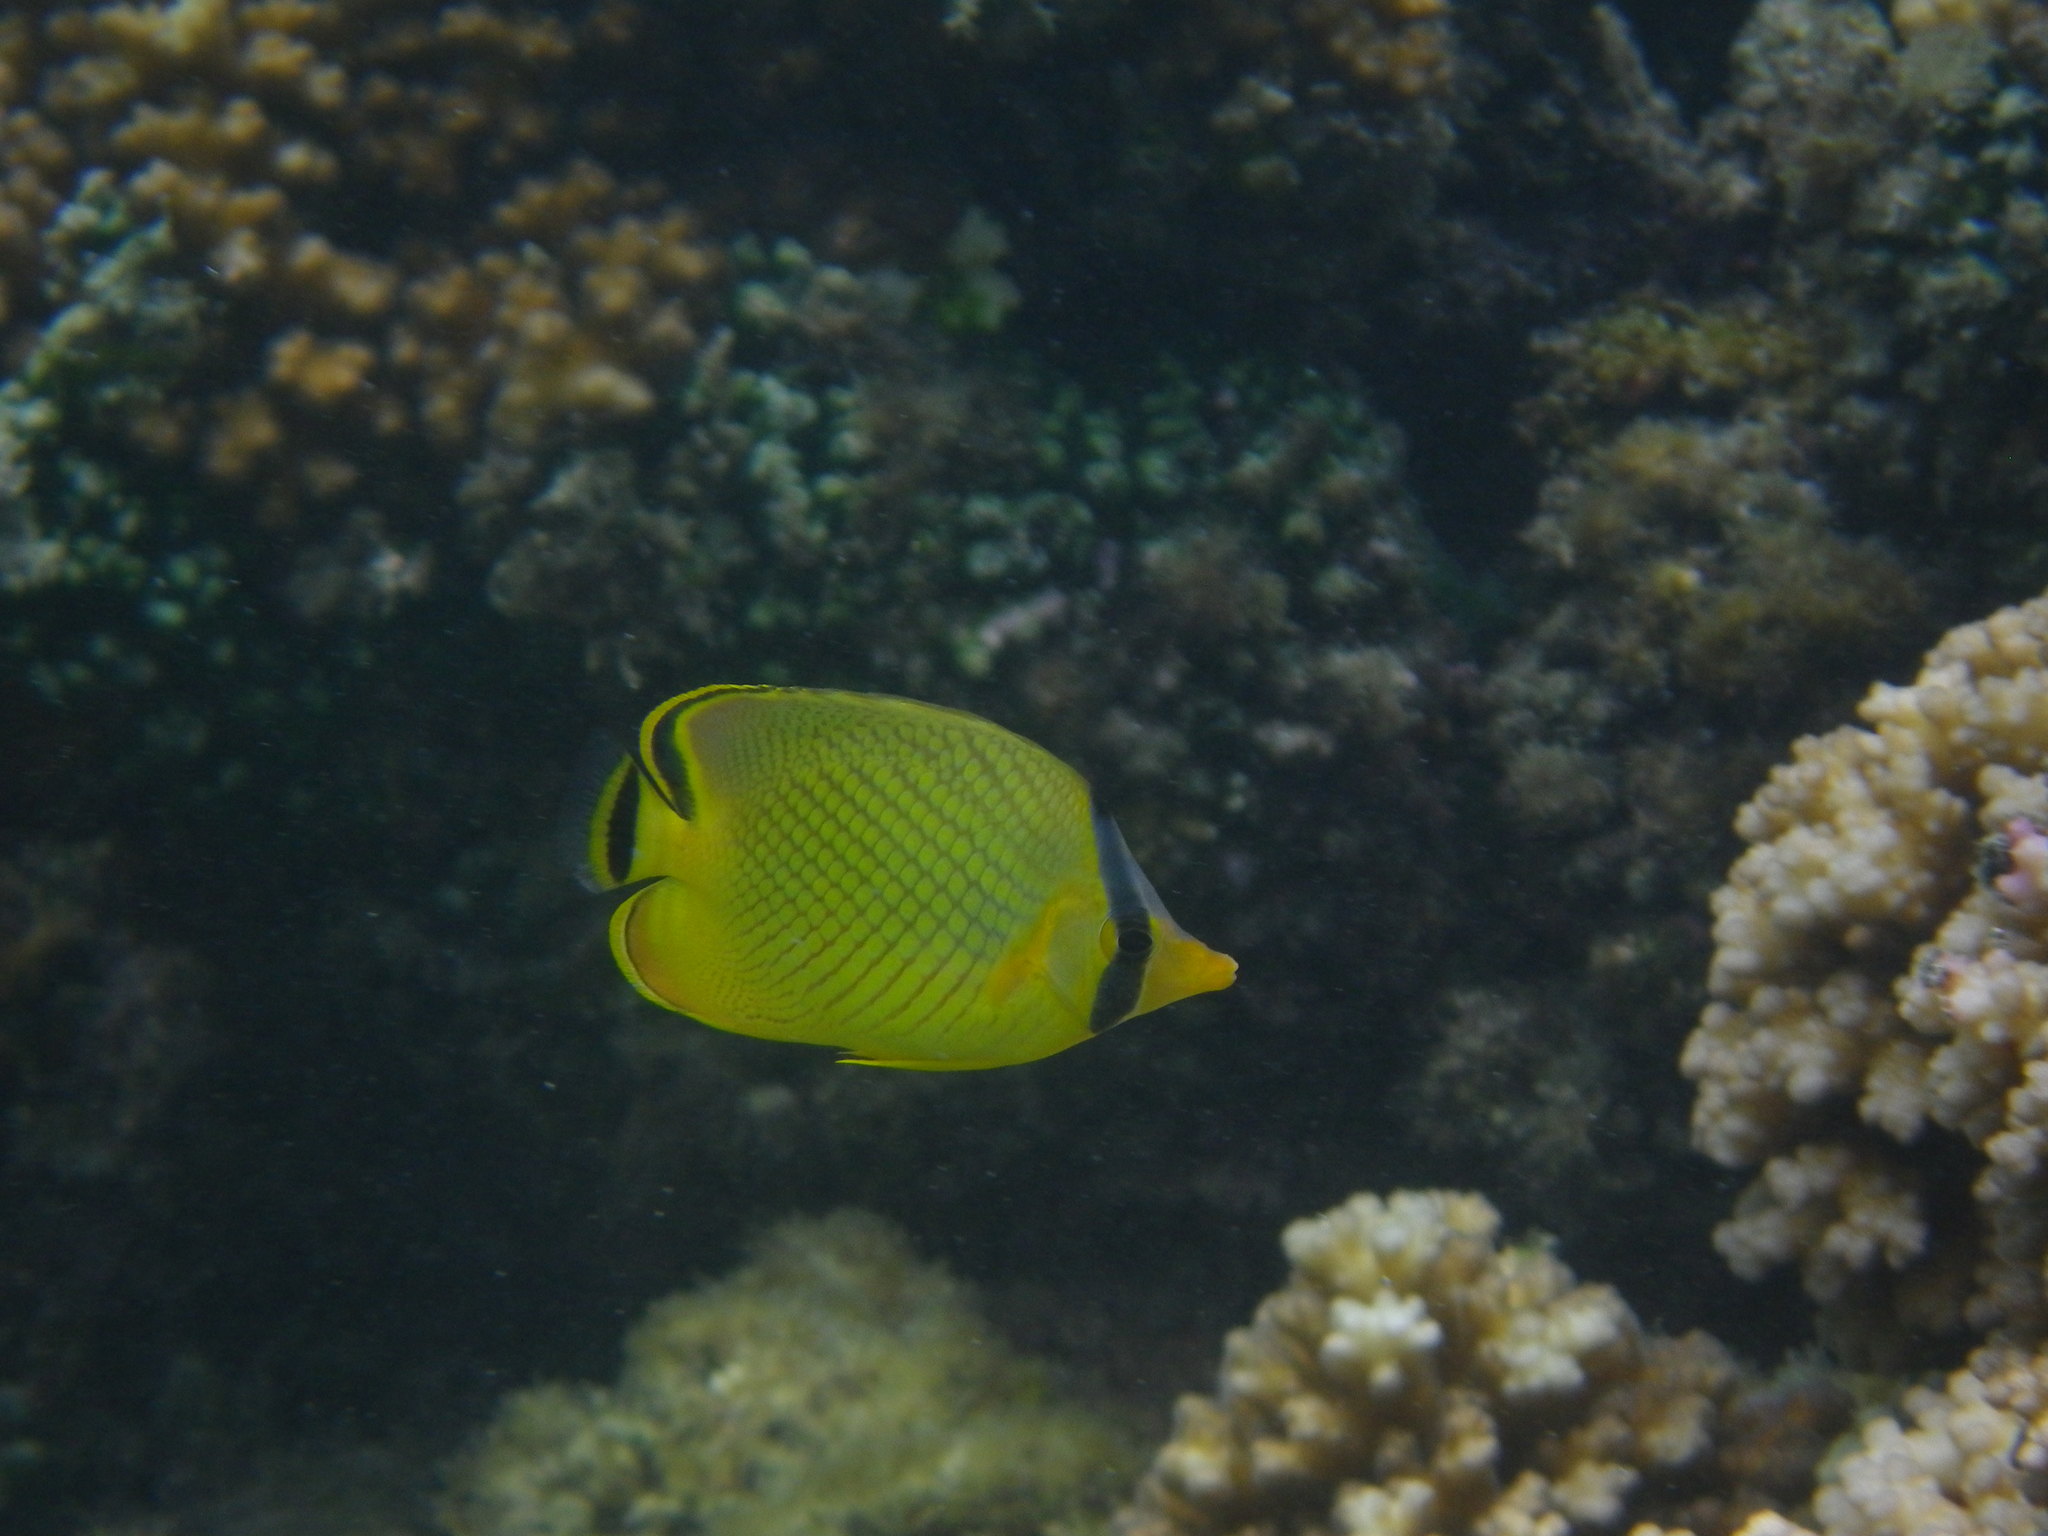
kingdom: Animalia
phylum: Chordata
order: Perciformes
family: Chaetodontidae
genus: Chaetodon
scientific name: Chaetodon rafflesii
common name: Latticed butterflyfish
